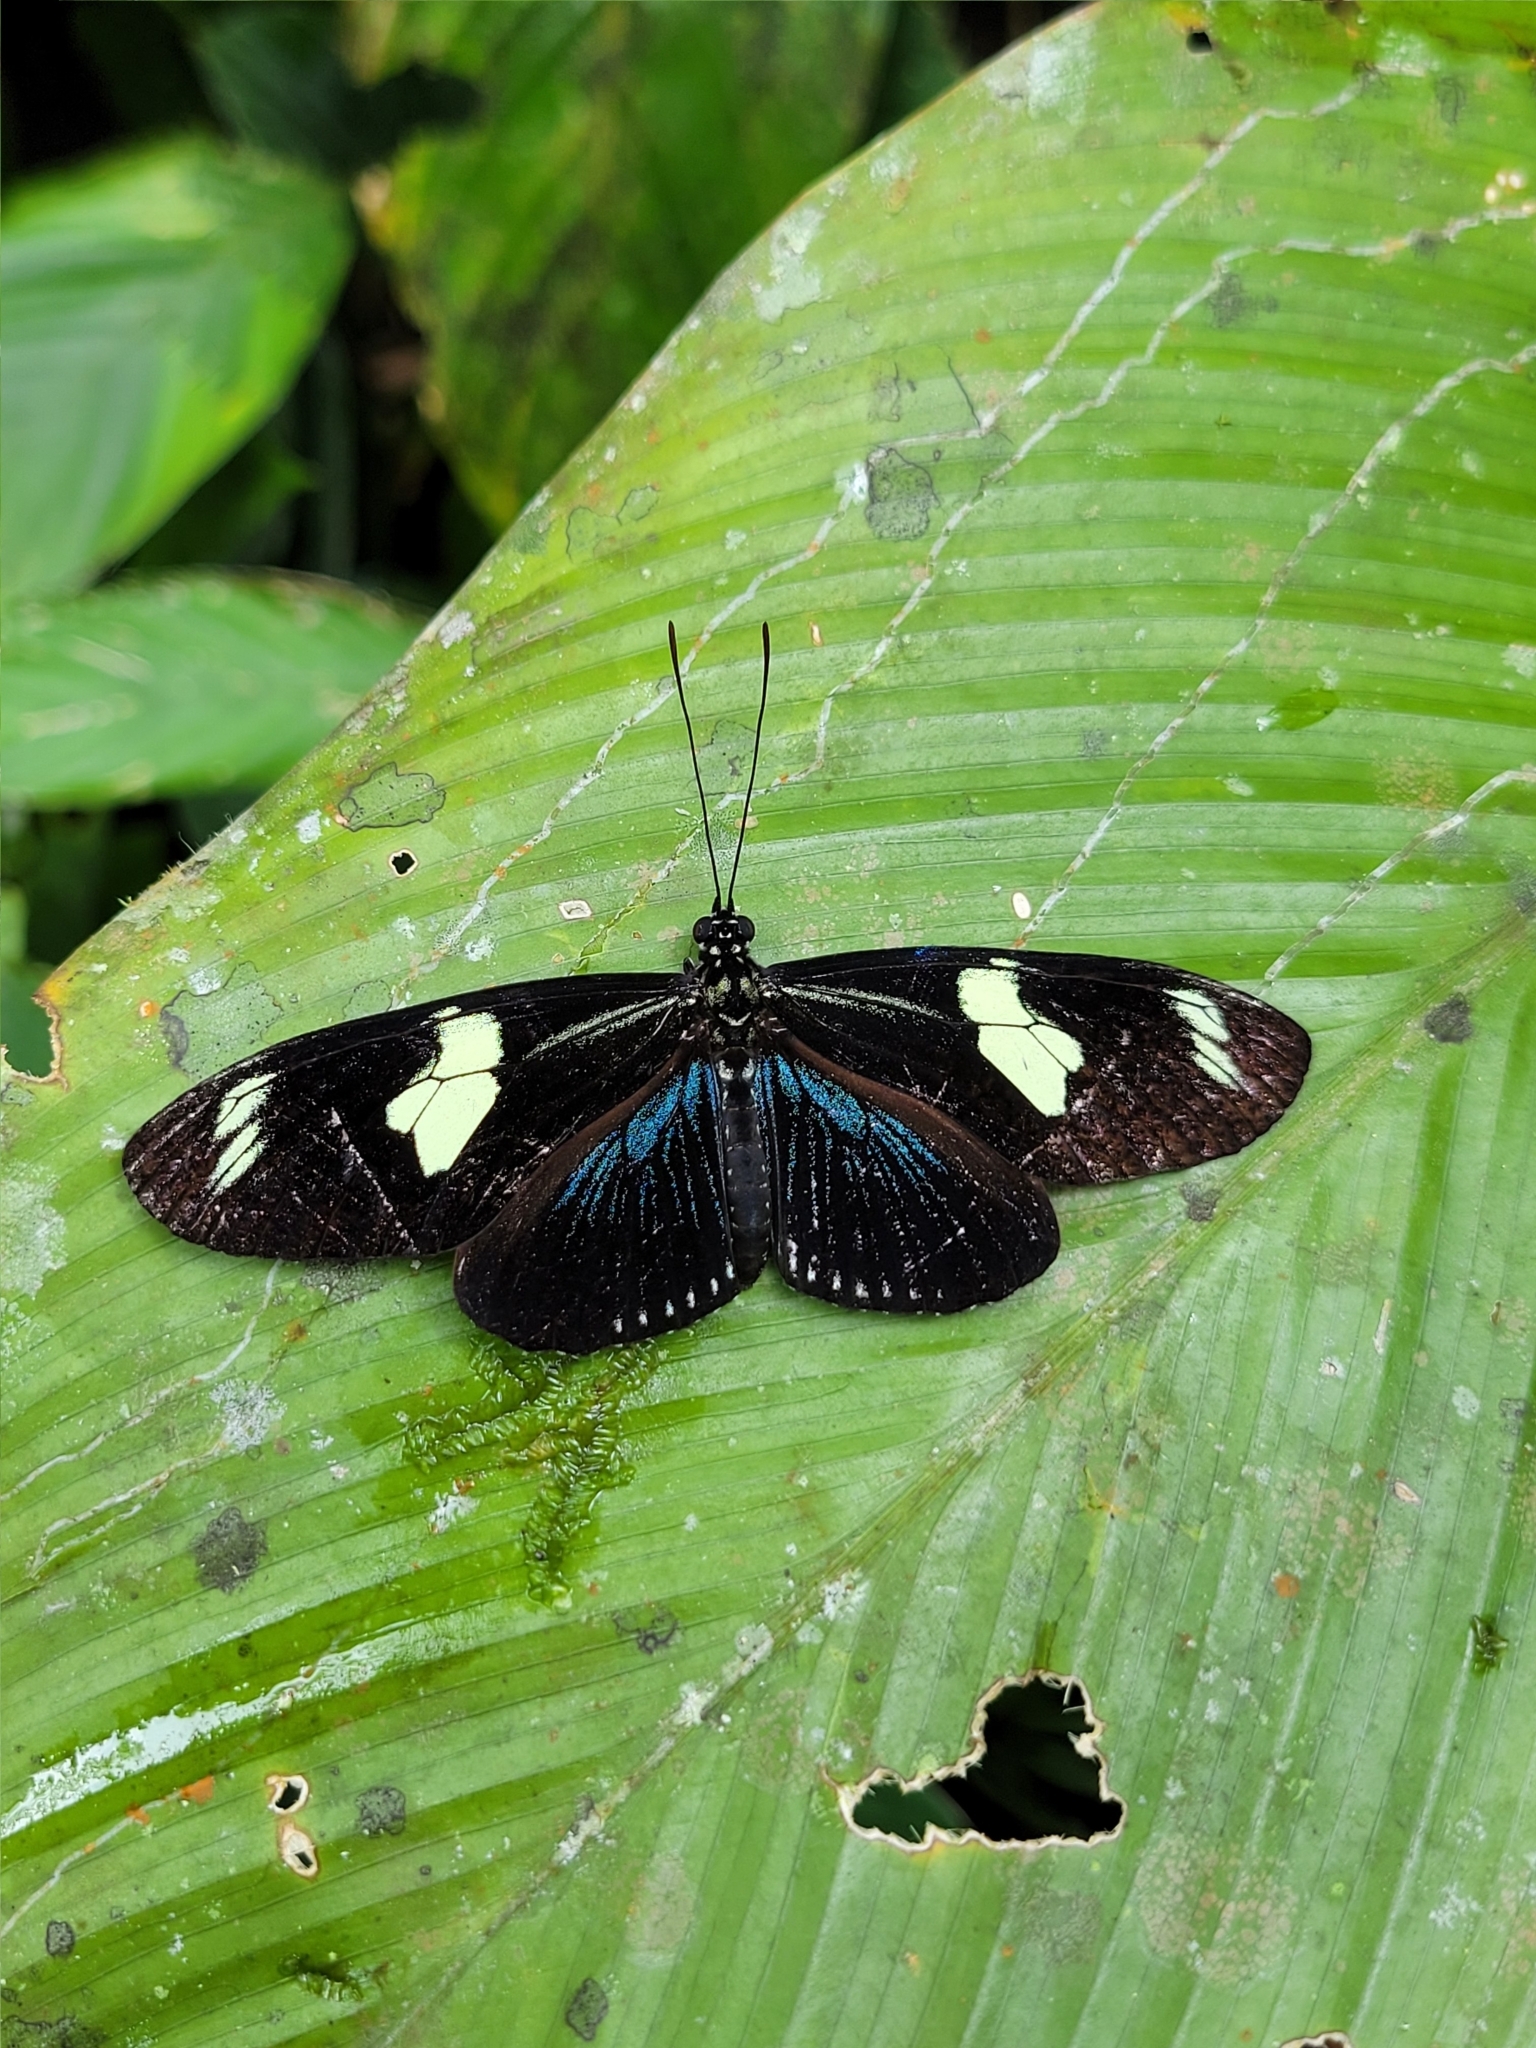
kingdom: Animalia
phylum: Arthropoda
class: Insecta
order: Lepidoptera
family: Nymphalidae
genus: Heliconius
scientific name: Heliconius doris
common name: Doris longwing
